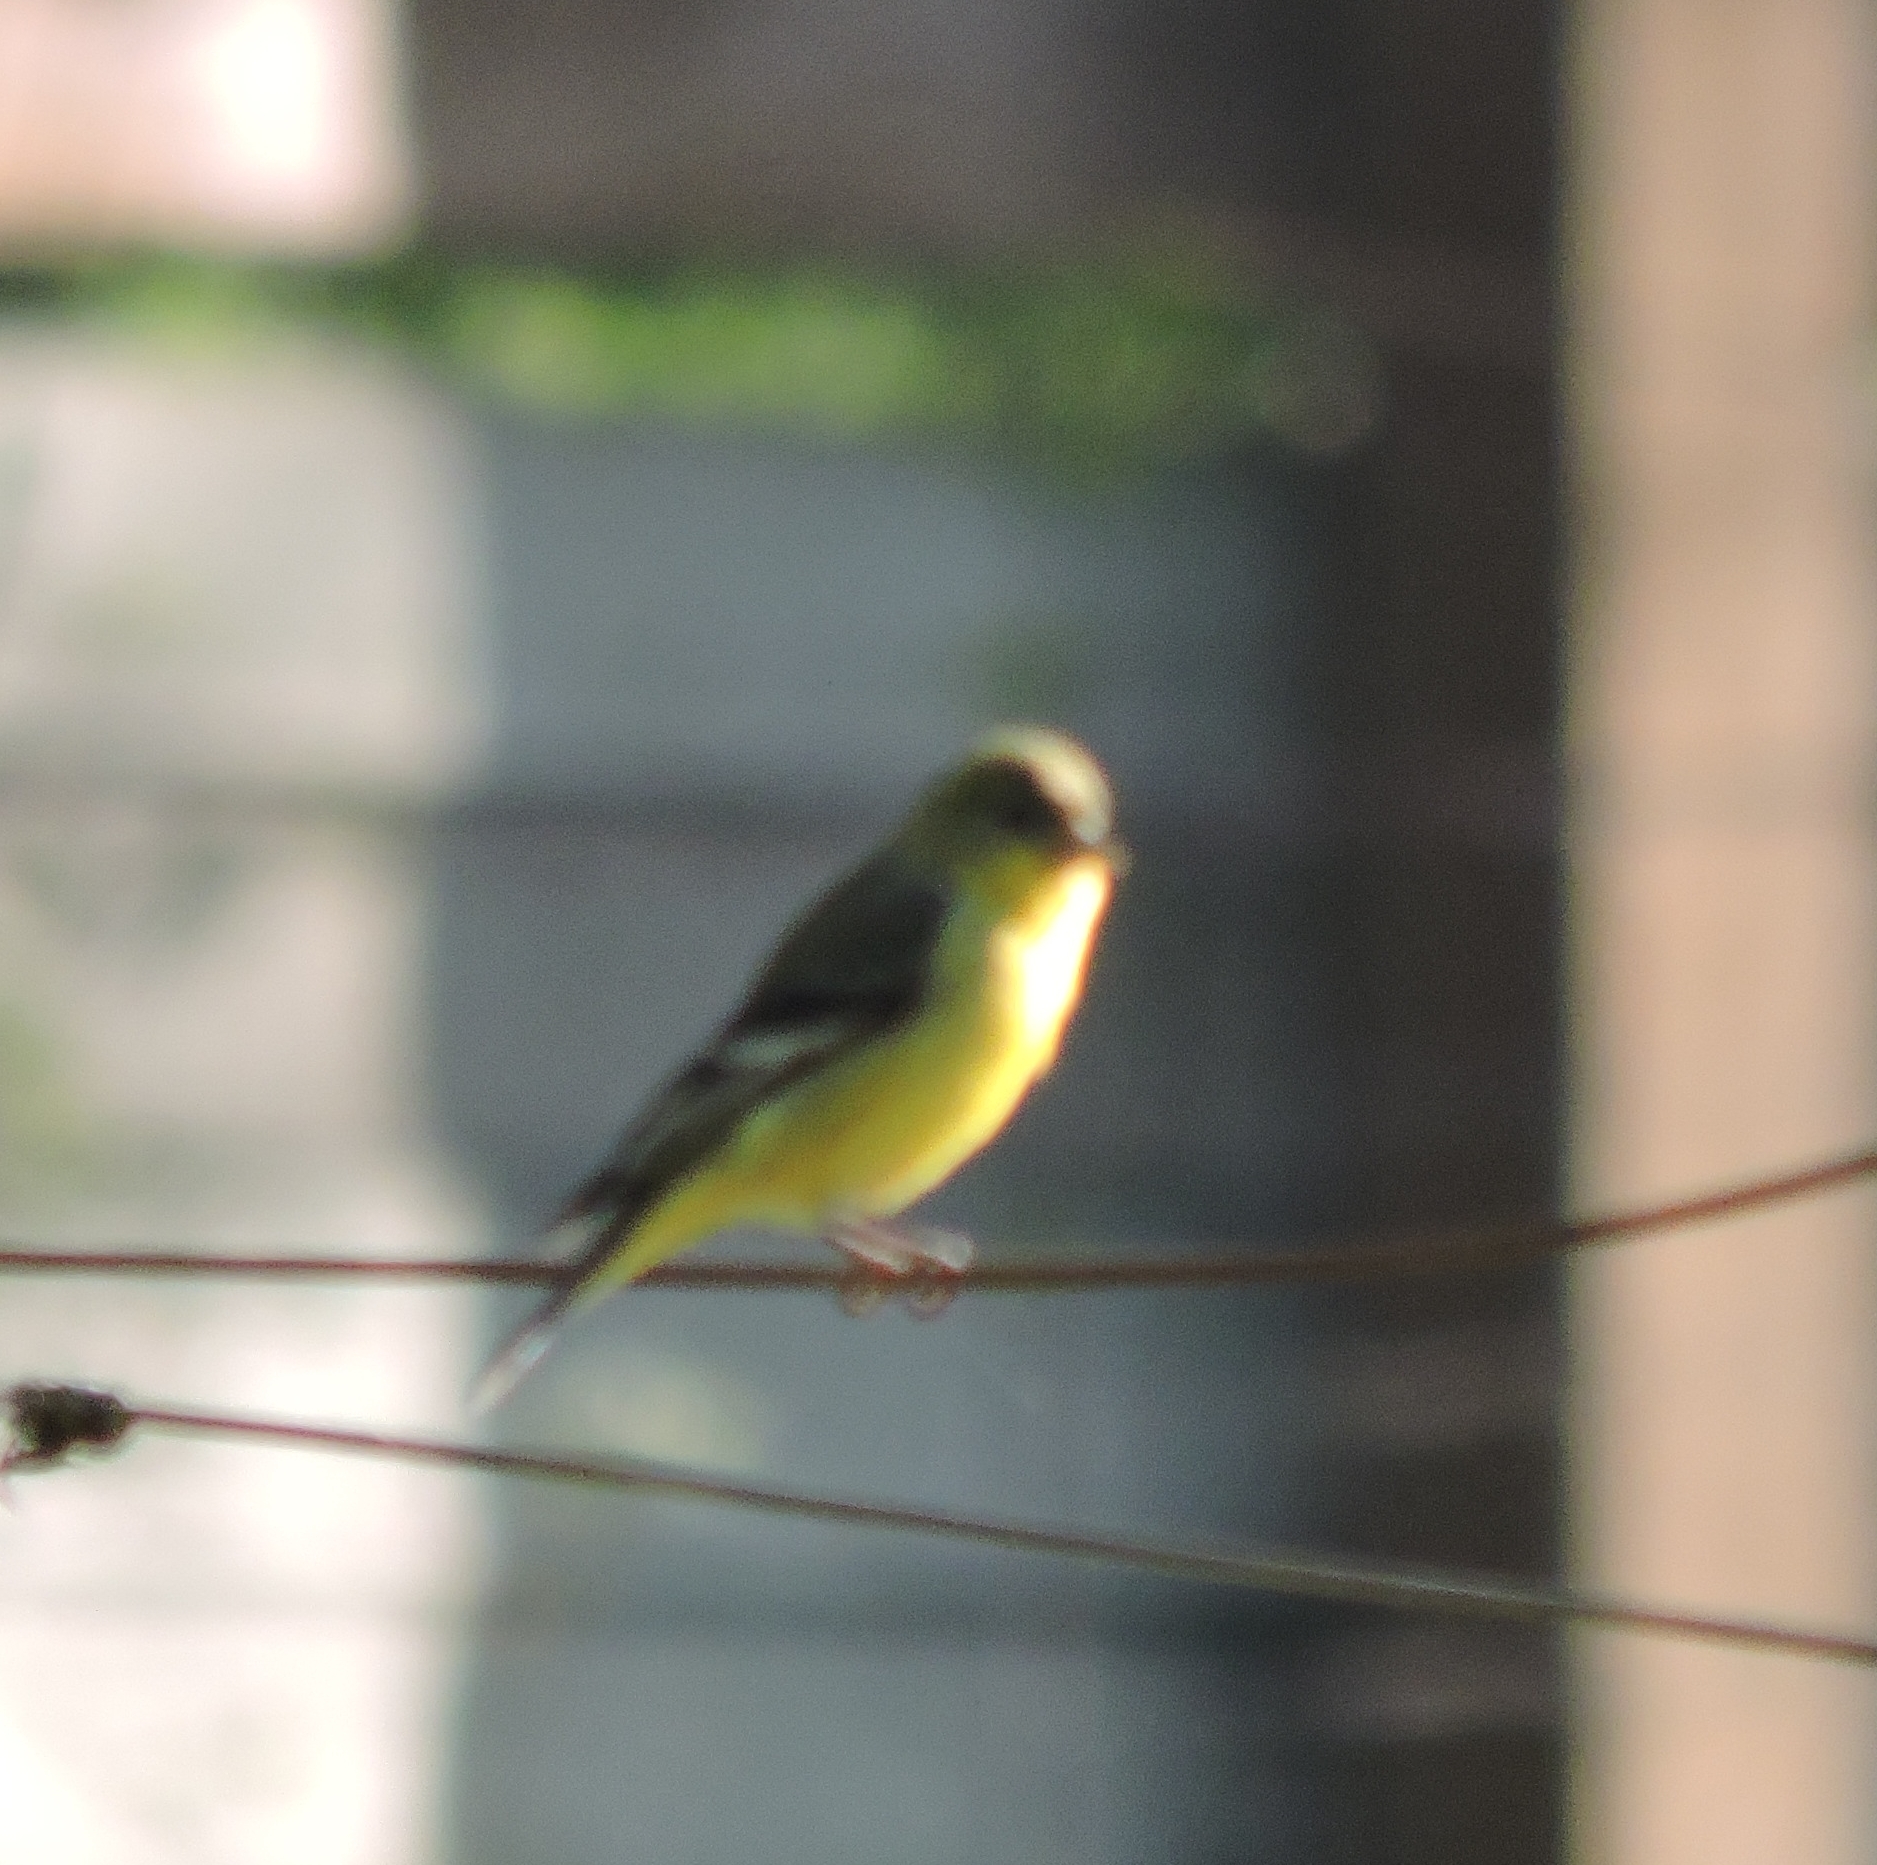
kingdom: Animalia
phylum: Chordata
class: Aves
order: Passeriformes
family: Fringillidae
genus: Spinus
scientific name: Spinus psaltria
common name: Lesser goldfinch
